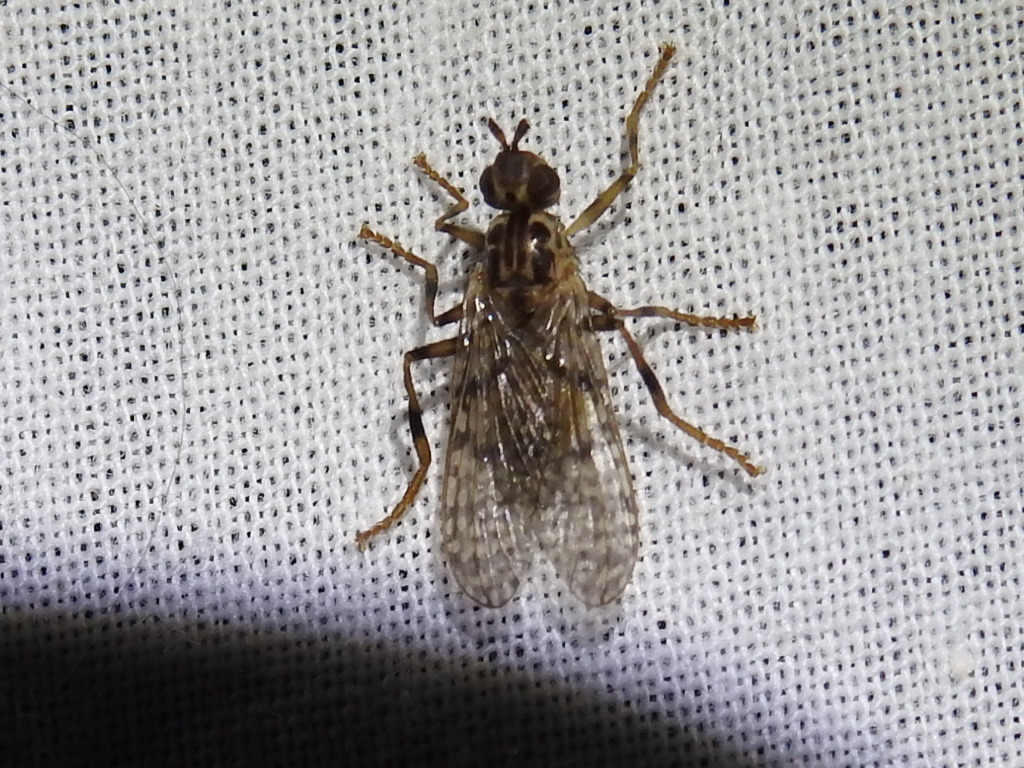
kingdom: Animalia
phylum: Arthropoda
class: Insecta
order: Diptera
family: Pyrgotidae
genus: Boreothrinax
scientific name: Boreothrinax
